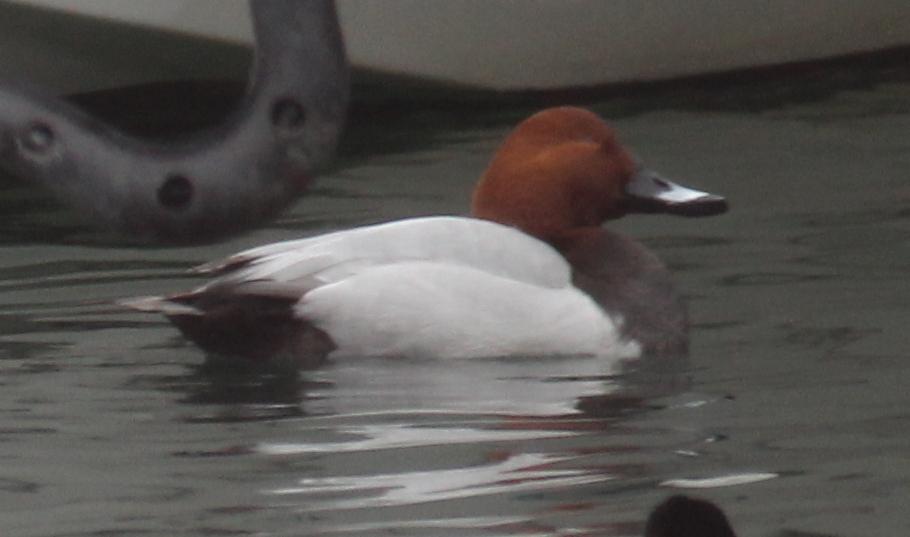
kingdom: Animalia
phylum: Chordata
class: Aves
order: Anseriformes
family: Anatidae
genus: Aythya
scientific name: Aythya ferina
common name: Common pochard
